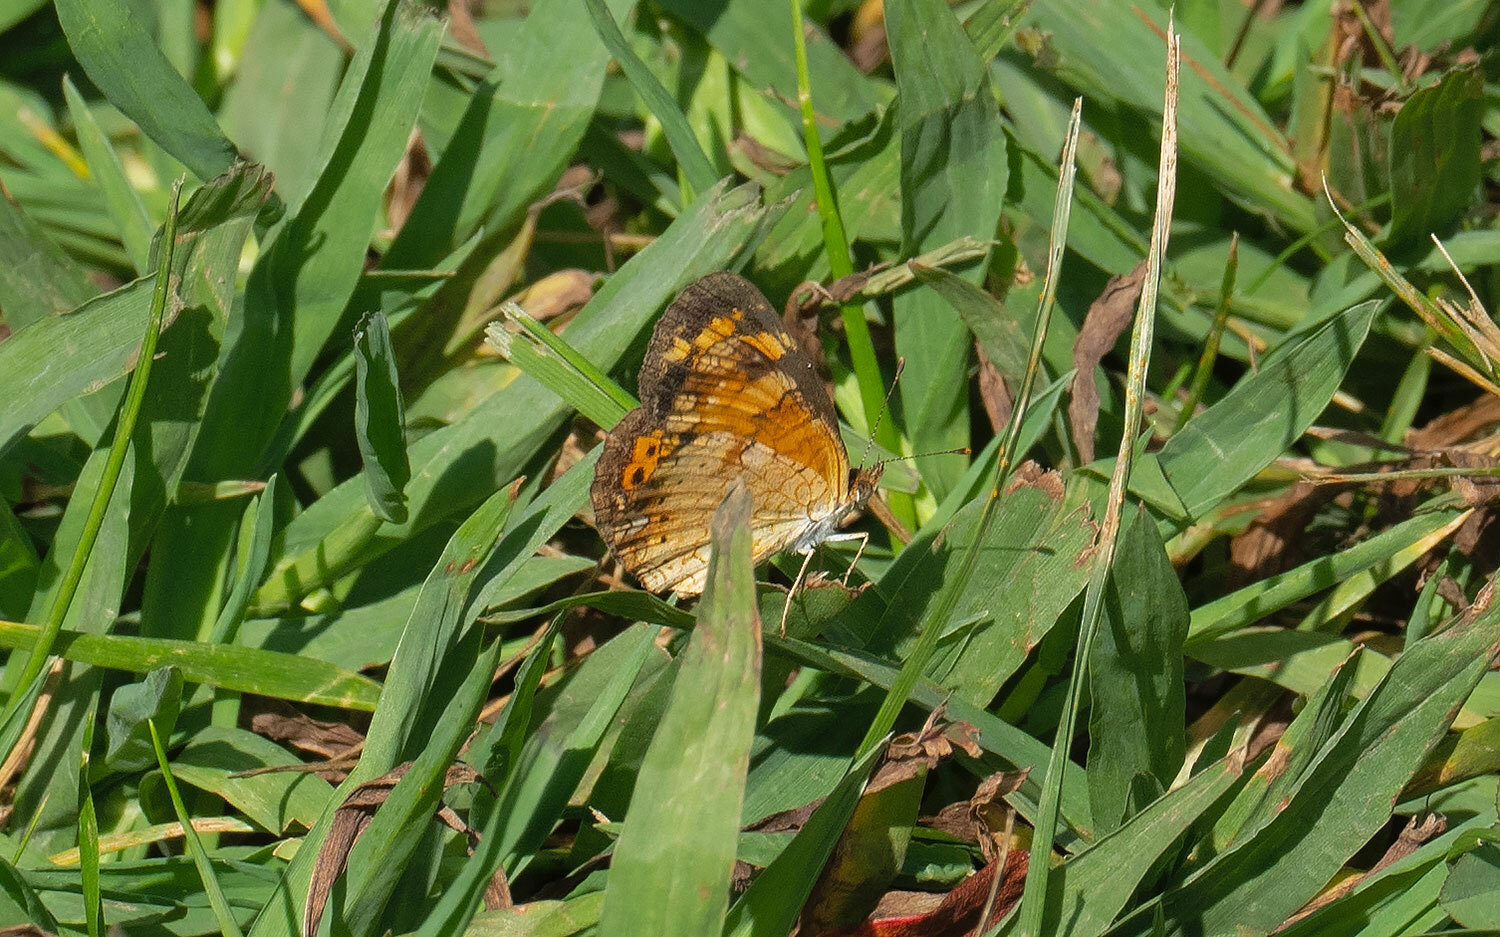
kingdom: Animalia
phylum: Arthropoda
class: Insecta
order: Lepidoptera
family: Nymphalidae
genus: Phyciodes
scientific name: Phyciodes tharos
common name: Pearl crescent
